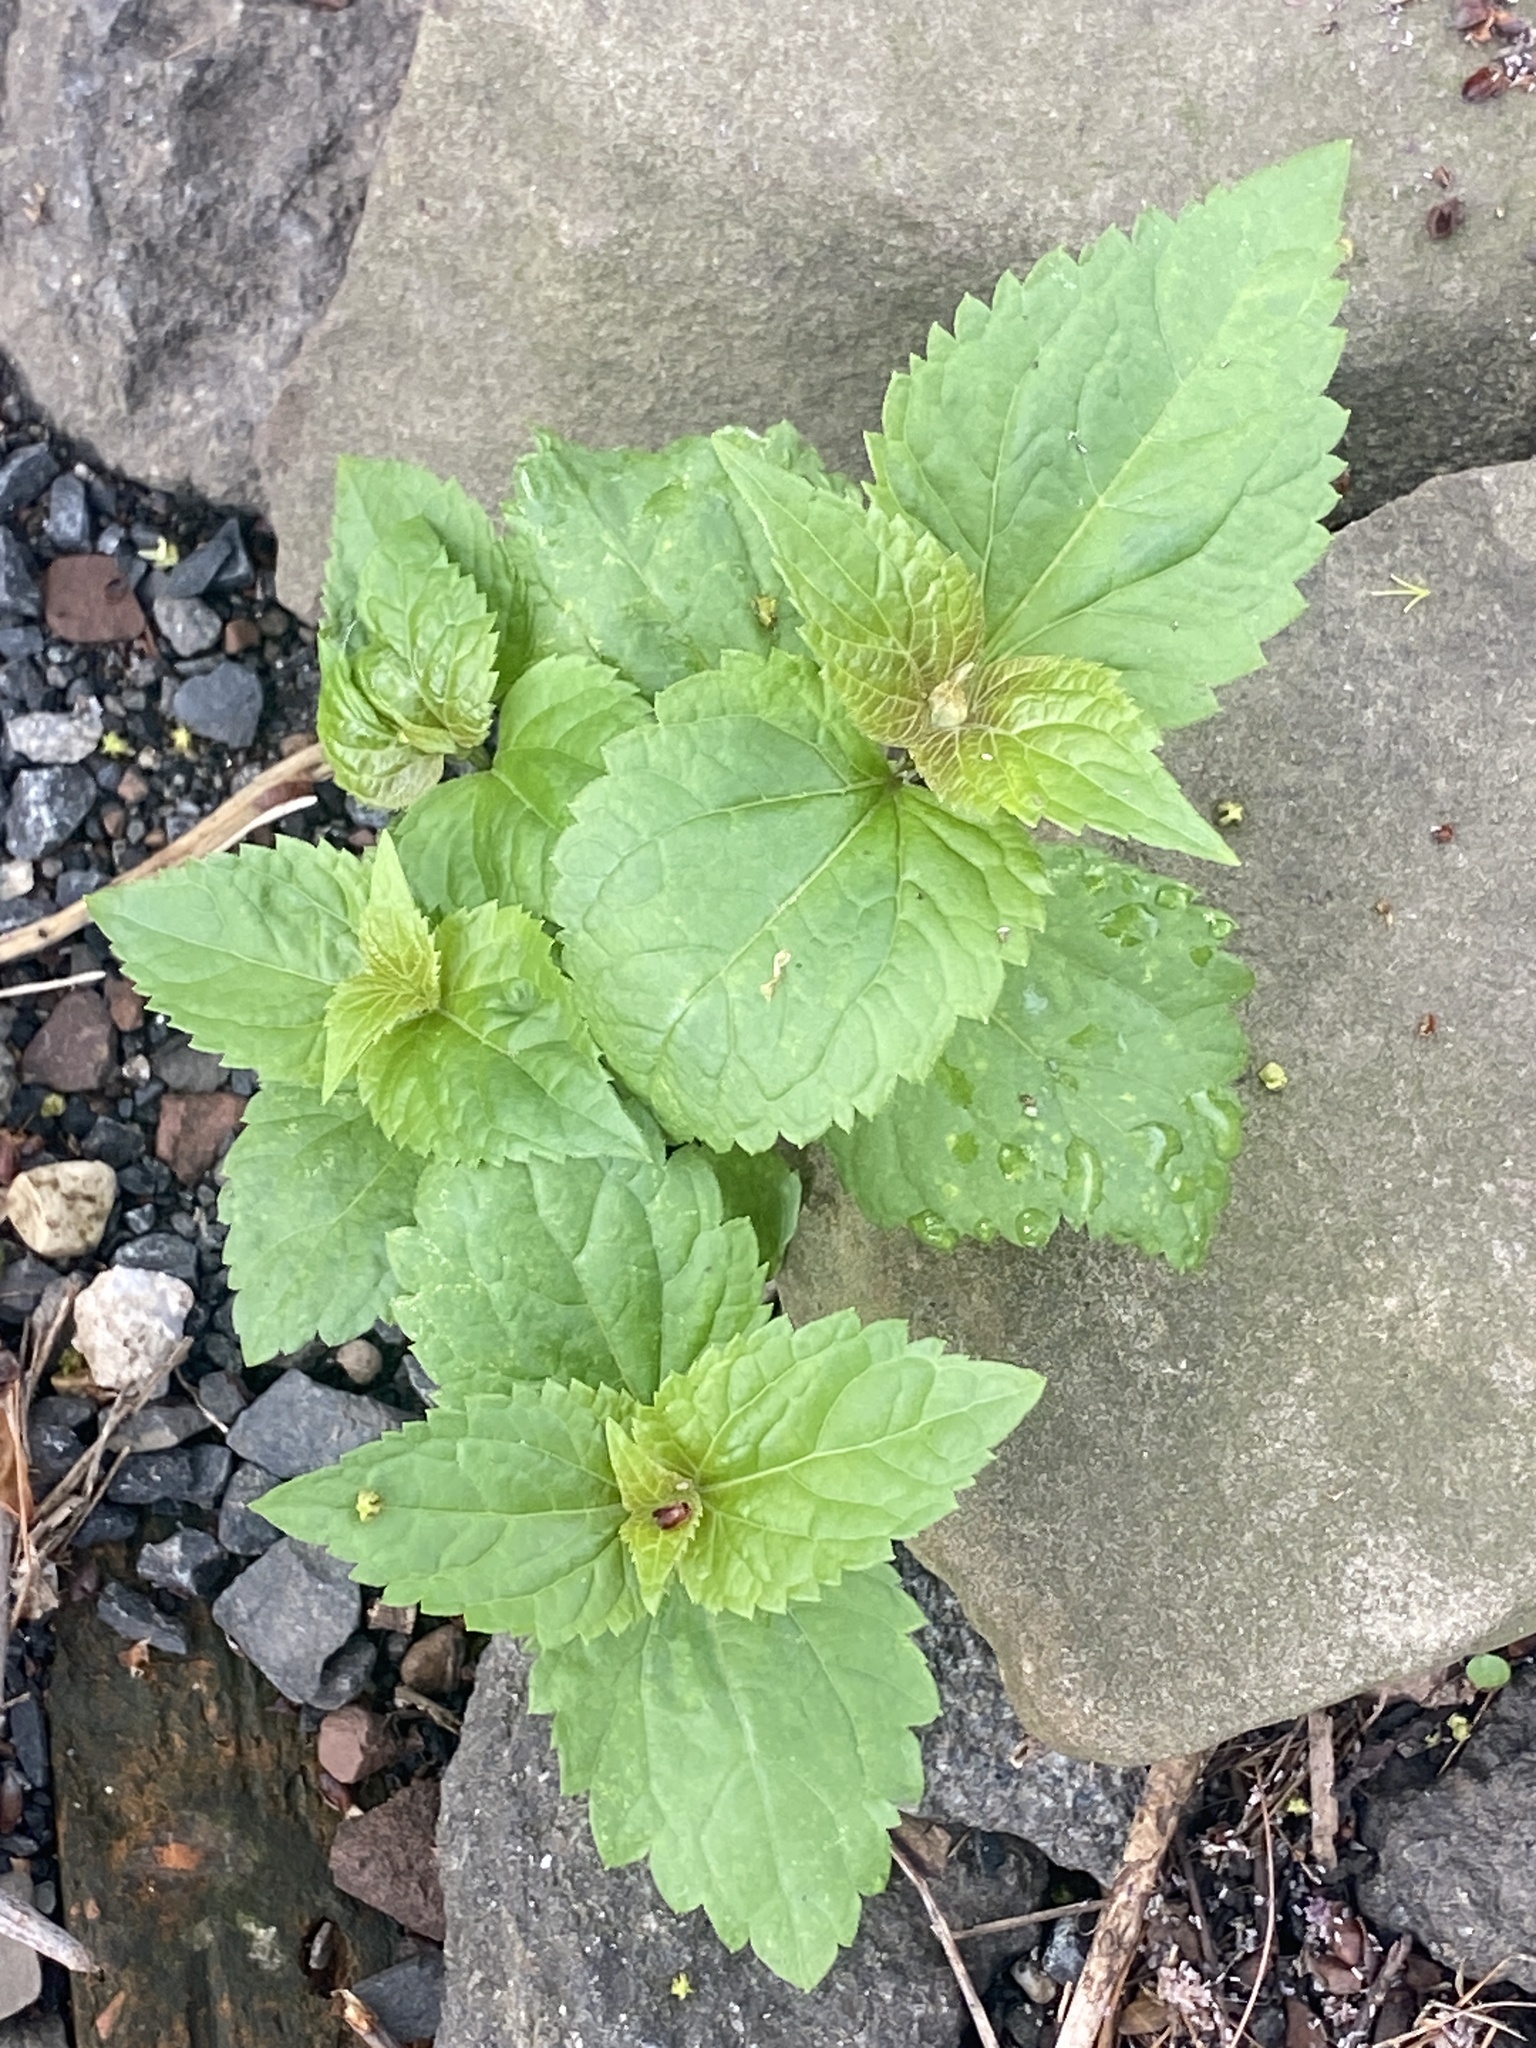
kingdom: Plantae
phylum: Tracheophyta
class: Magnoliopsida
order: Asterales
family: Asteraceae
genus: Ageratina
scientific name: Ageratina altissima
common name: White snakeroot
